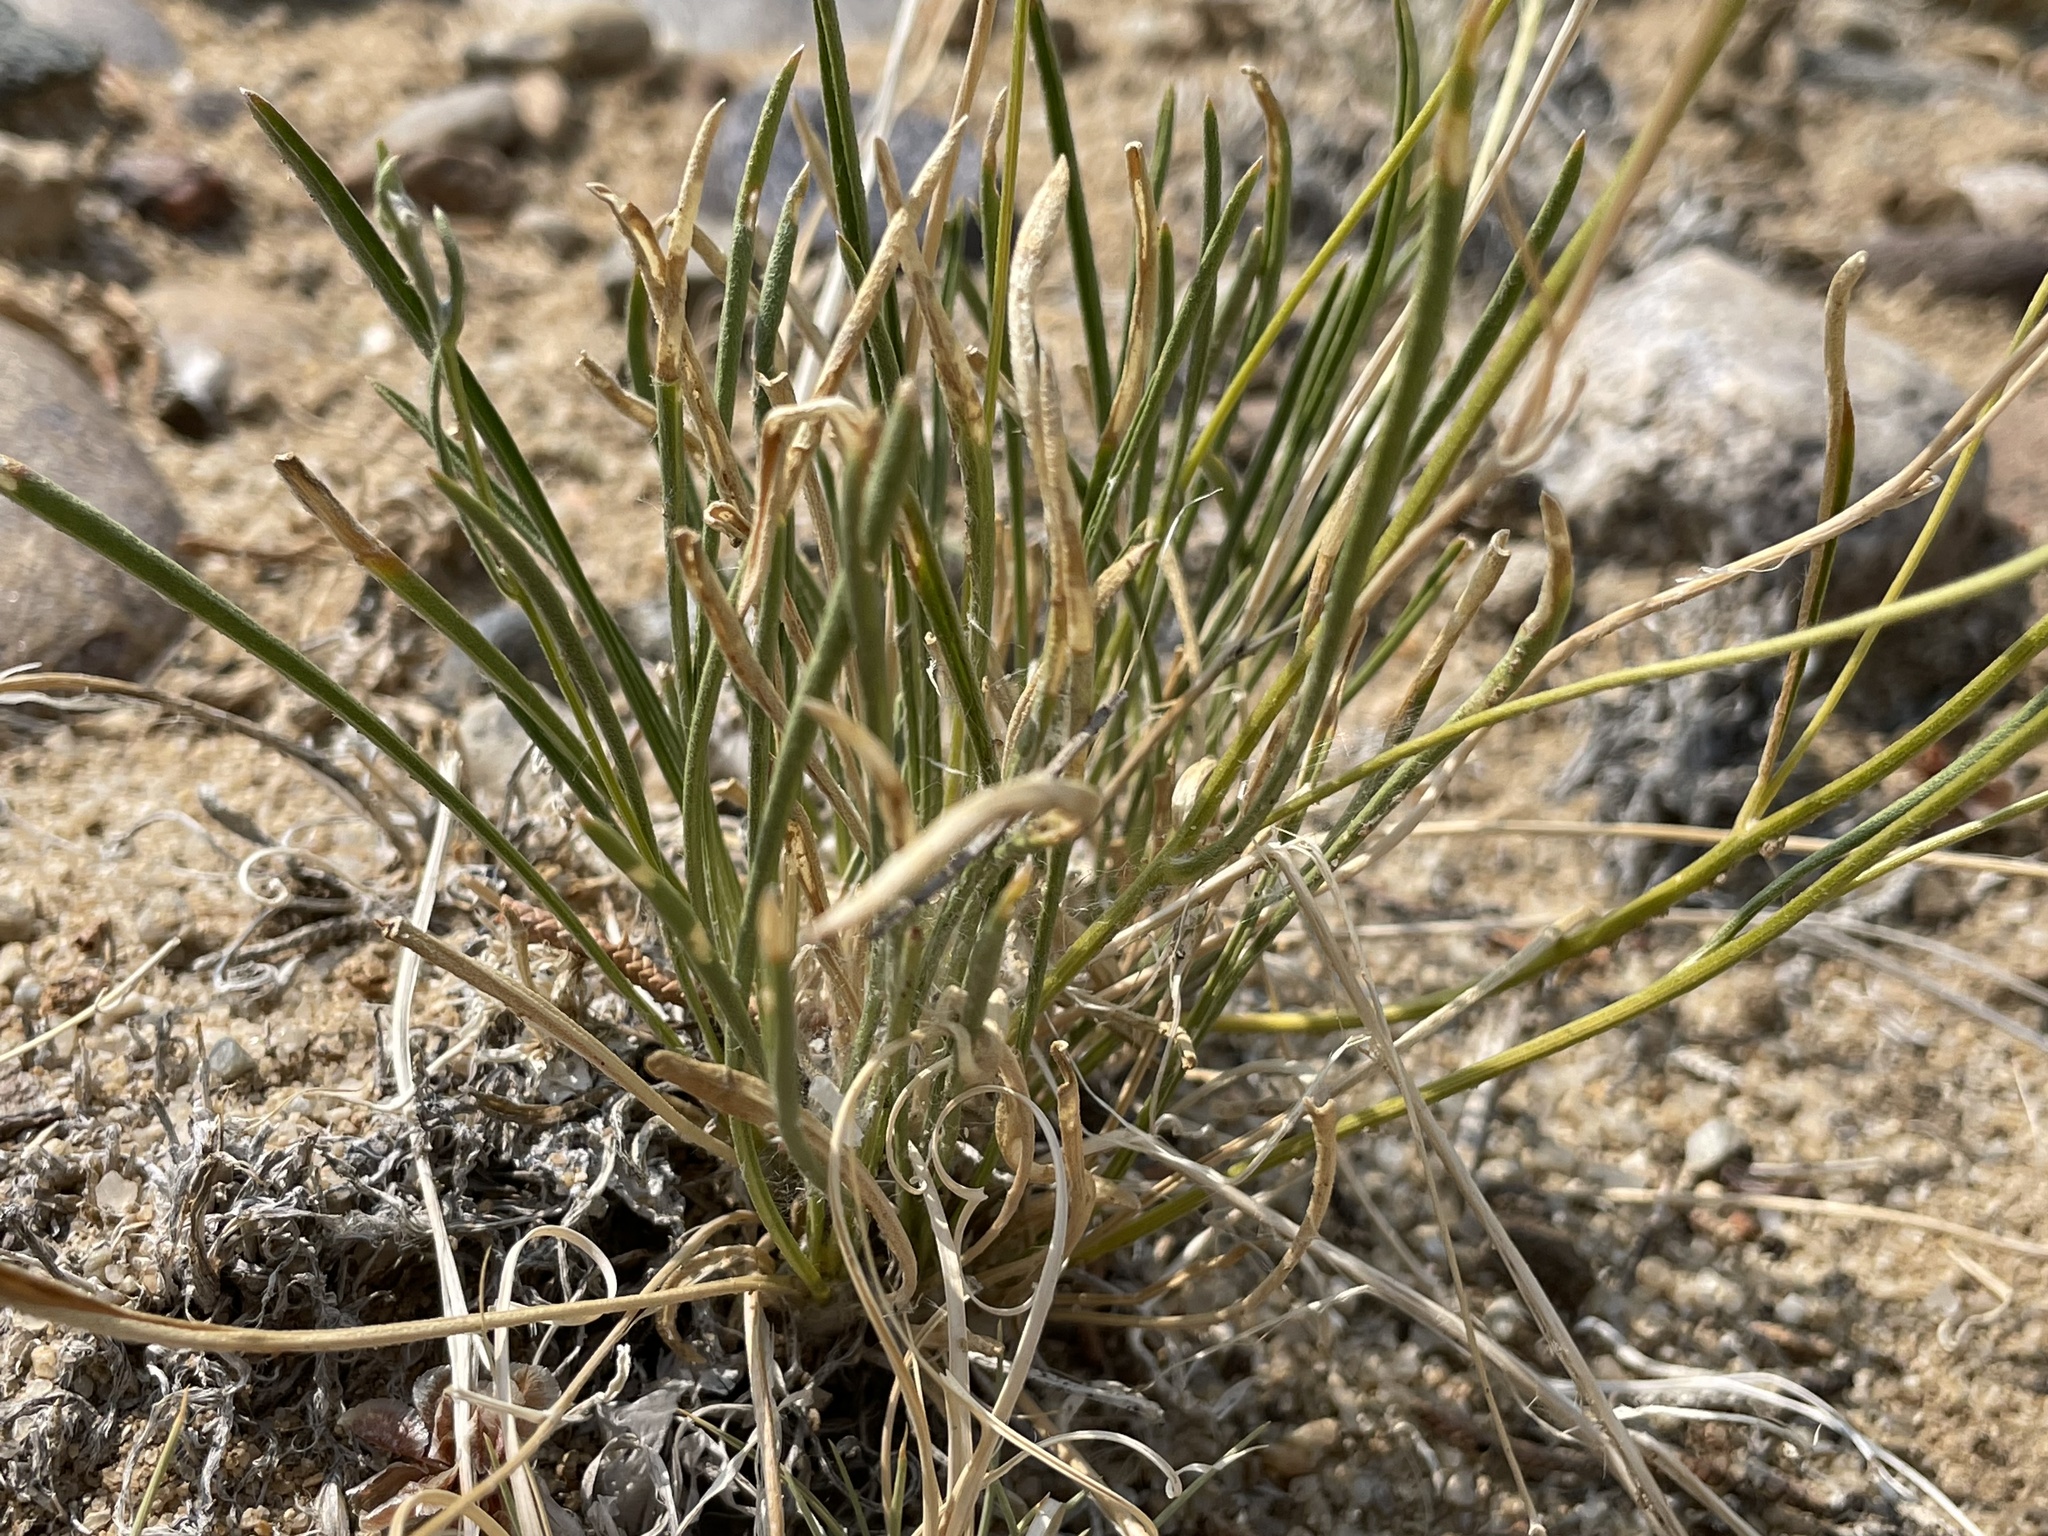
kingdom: Plantae
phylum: Tracheophyta
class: Magnoliopsida
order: Asterales
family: Asteraceae
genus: Tetraneuris
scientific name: Tetraneuris ivesiana
